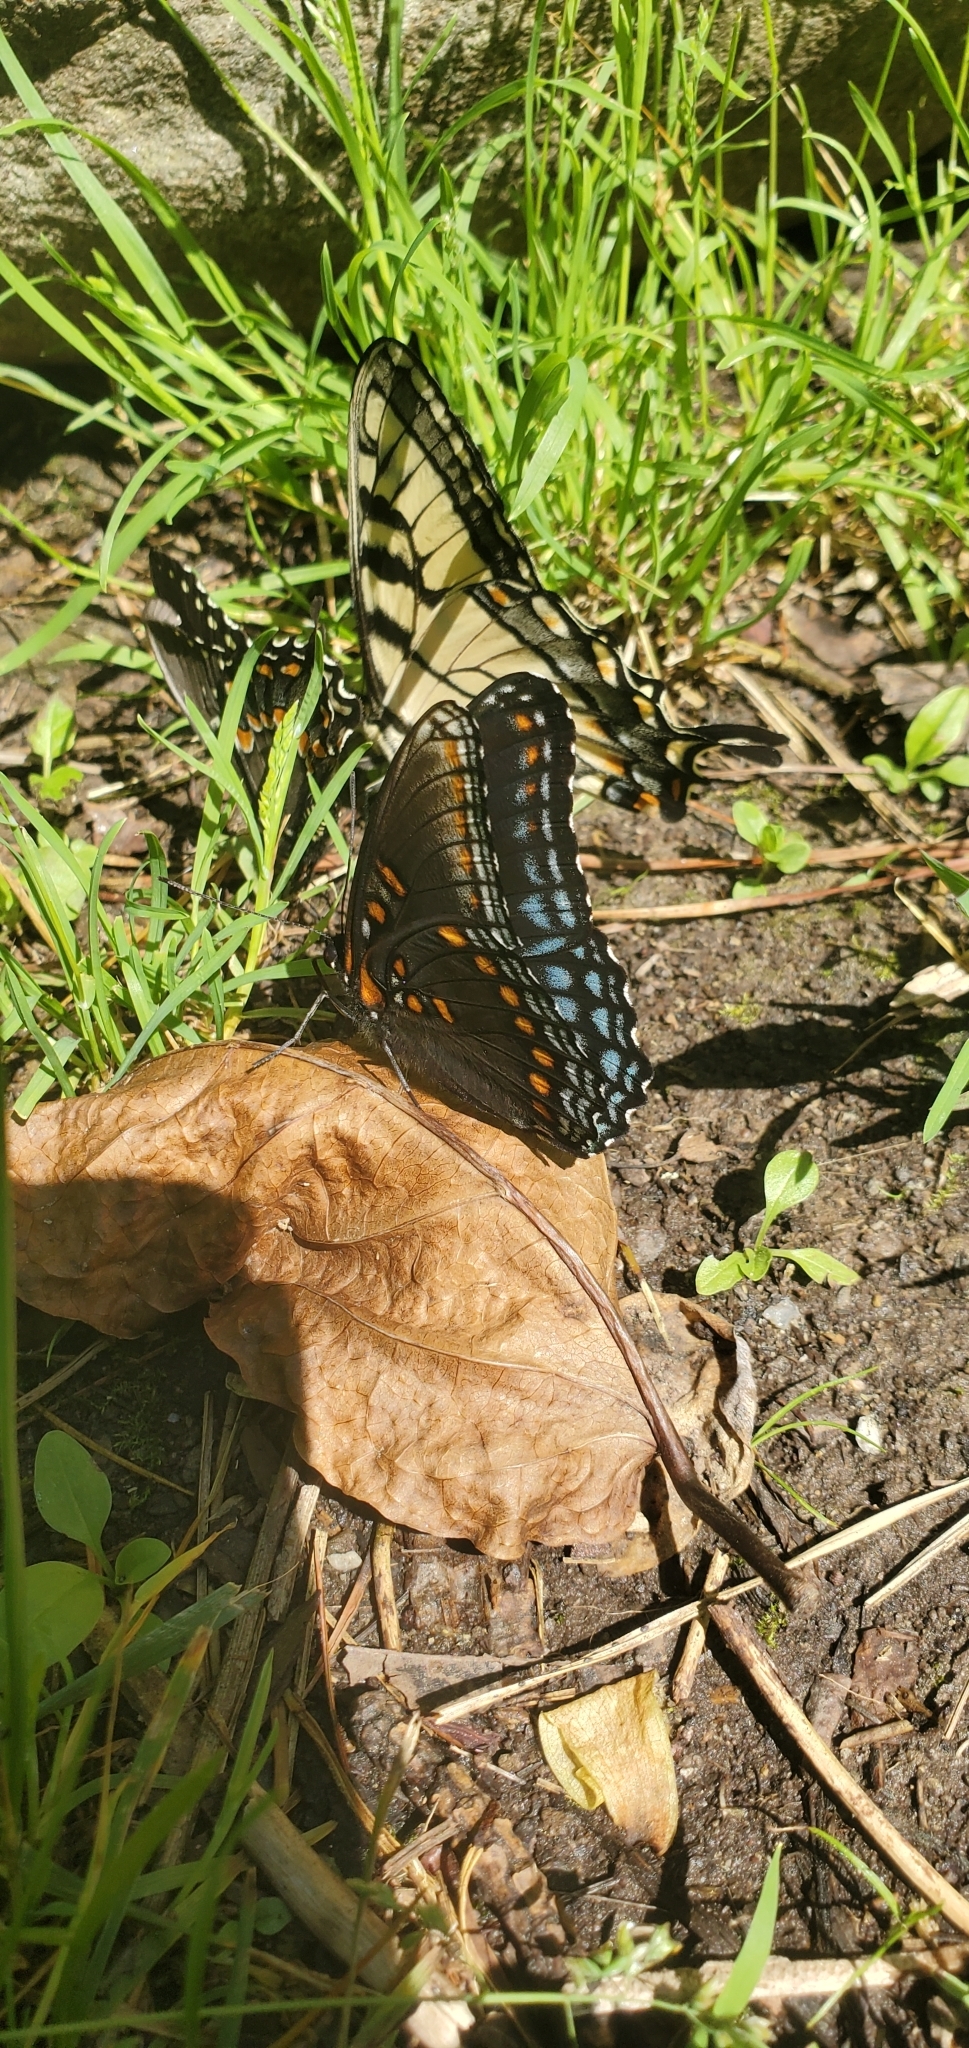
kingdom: Animalia
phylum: Arthropoda
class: Insecta
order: Lepidoptera
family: Nymphalidae
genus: Limenitis
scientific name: Limenitis astyanax
